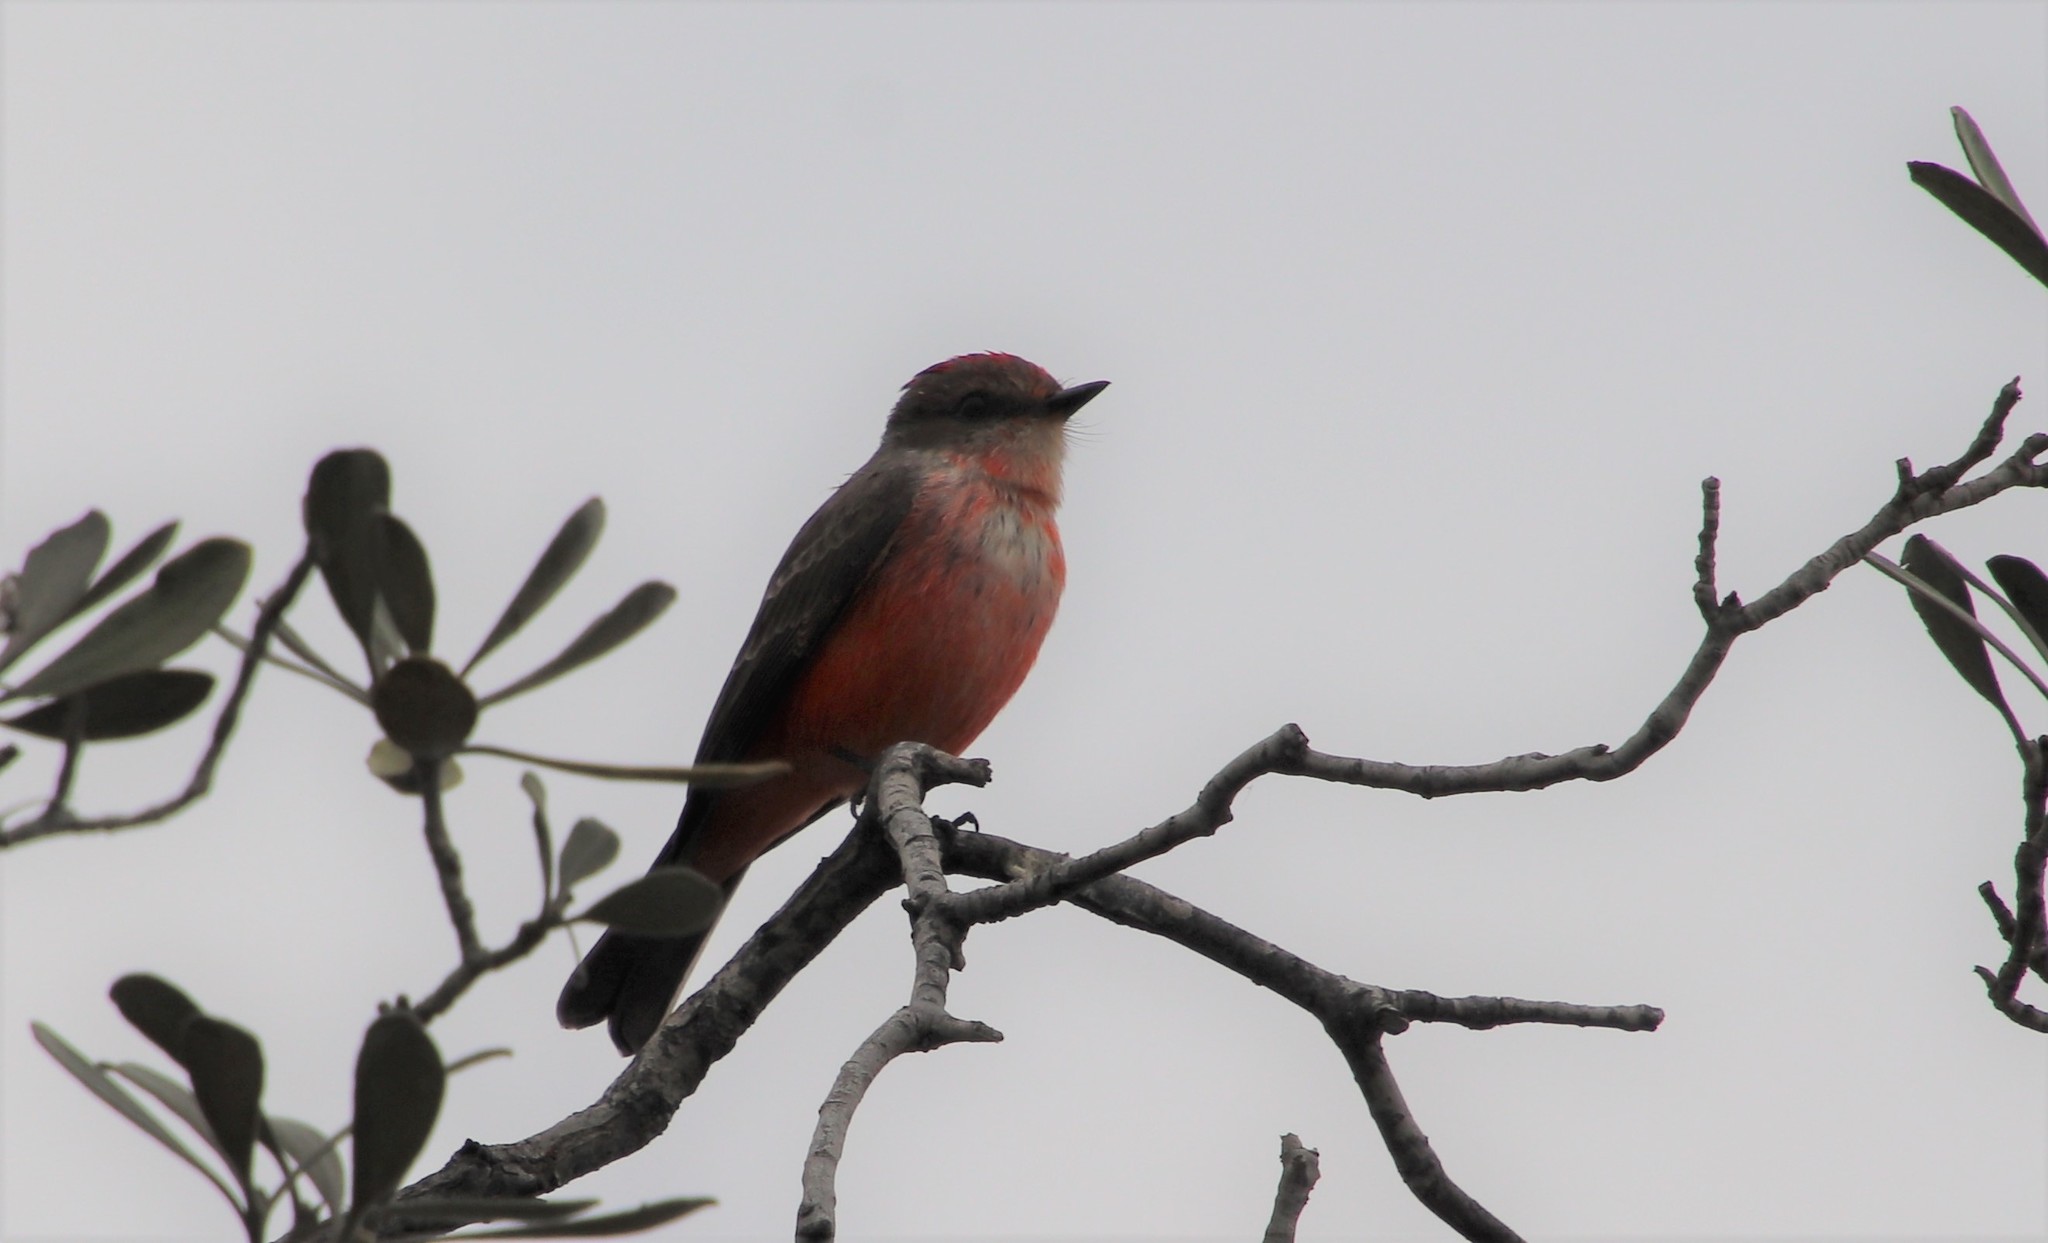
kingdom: Animalia
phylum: Chordata
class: Aves
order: Passeriformes
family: Tyrannidae
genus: Pyrocephalus
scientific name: Pyrocephalus rubinus
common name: Vermilion flycatcher
